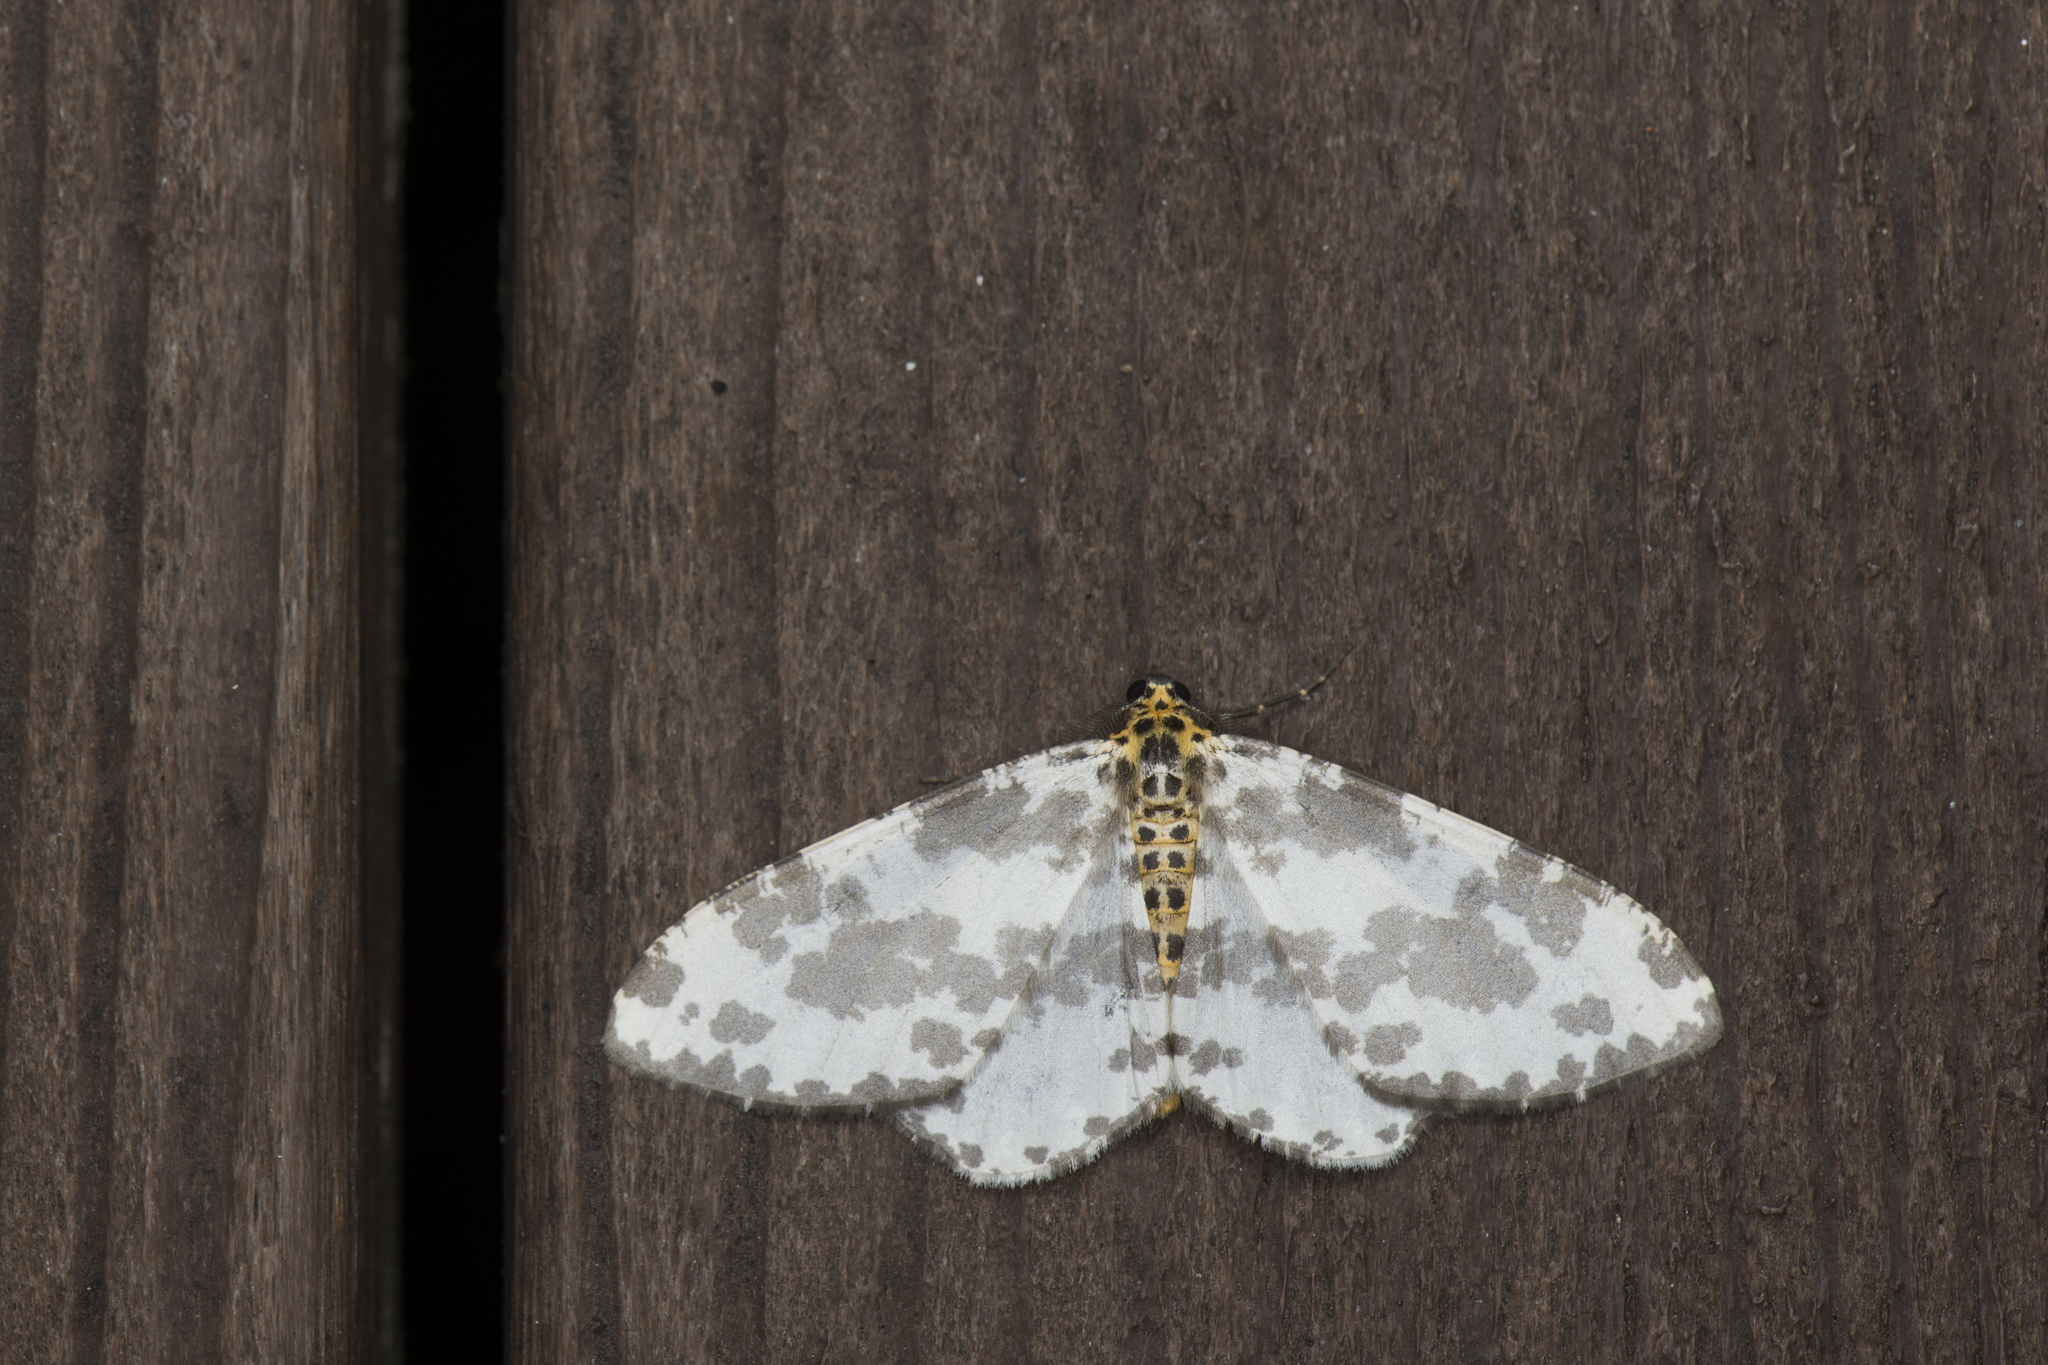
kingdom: Animalia
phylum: Arthropoda
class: Insecta
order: Lepidoptera
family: Geometridae
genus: Pseudabraxas
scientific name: Pseudabraxas taiwana
